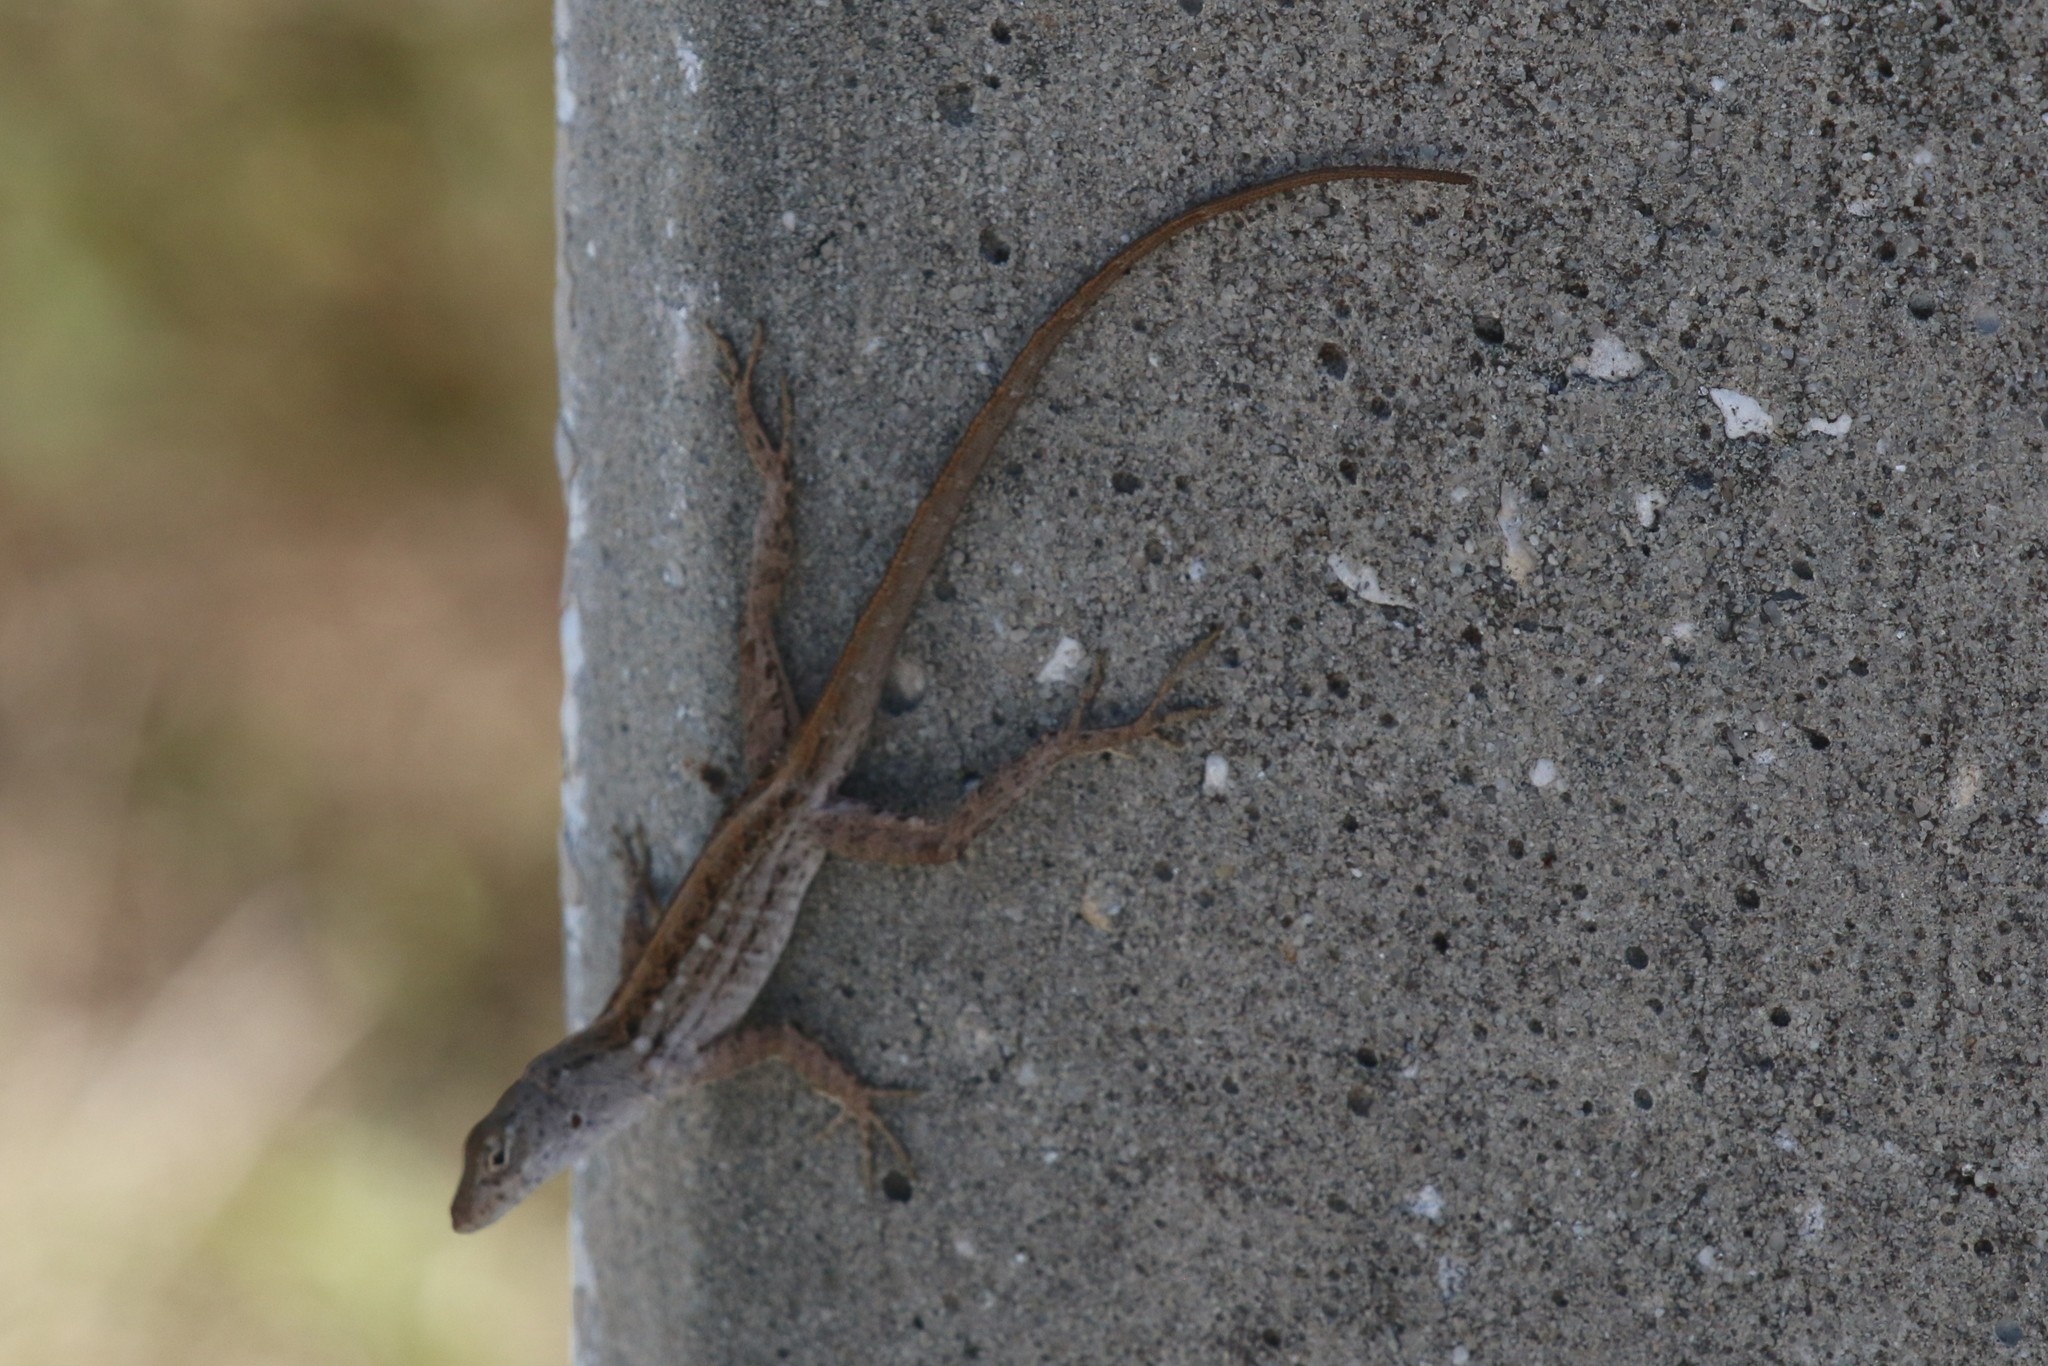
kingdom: Animalia
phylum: Chordata
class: Squamata
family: Dactyloidae
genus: Anolis
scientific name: Anolis sagrei
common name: Brown anole
